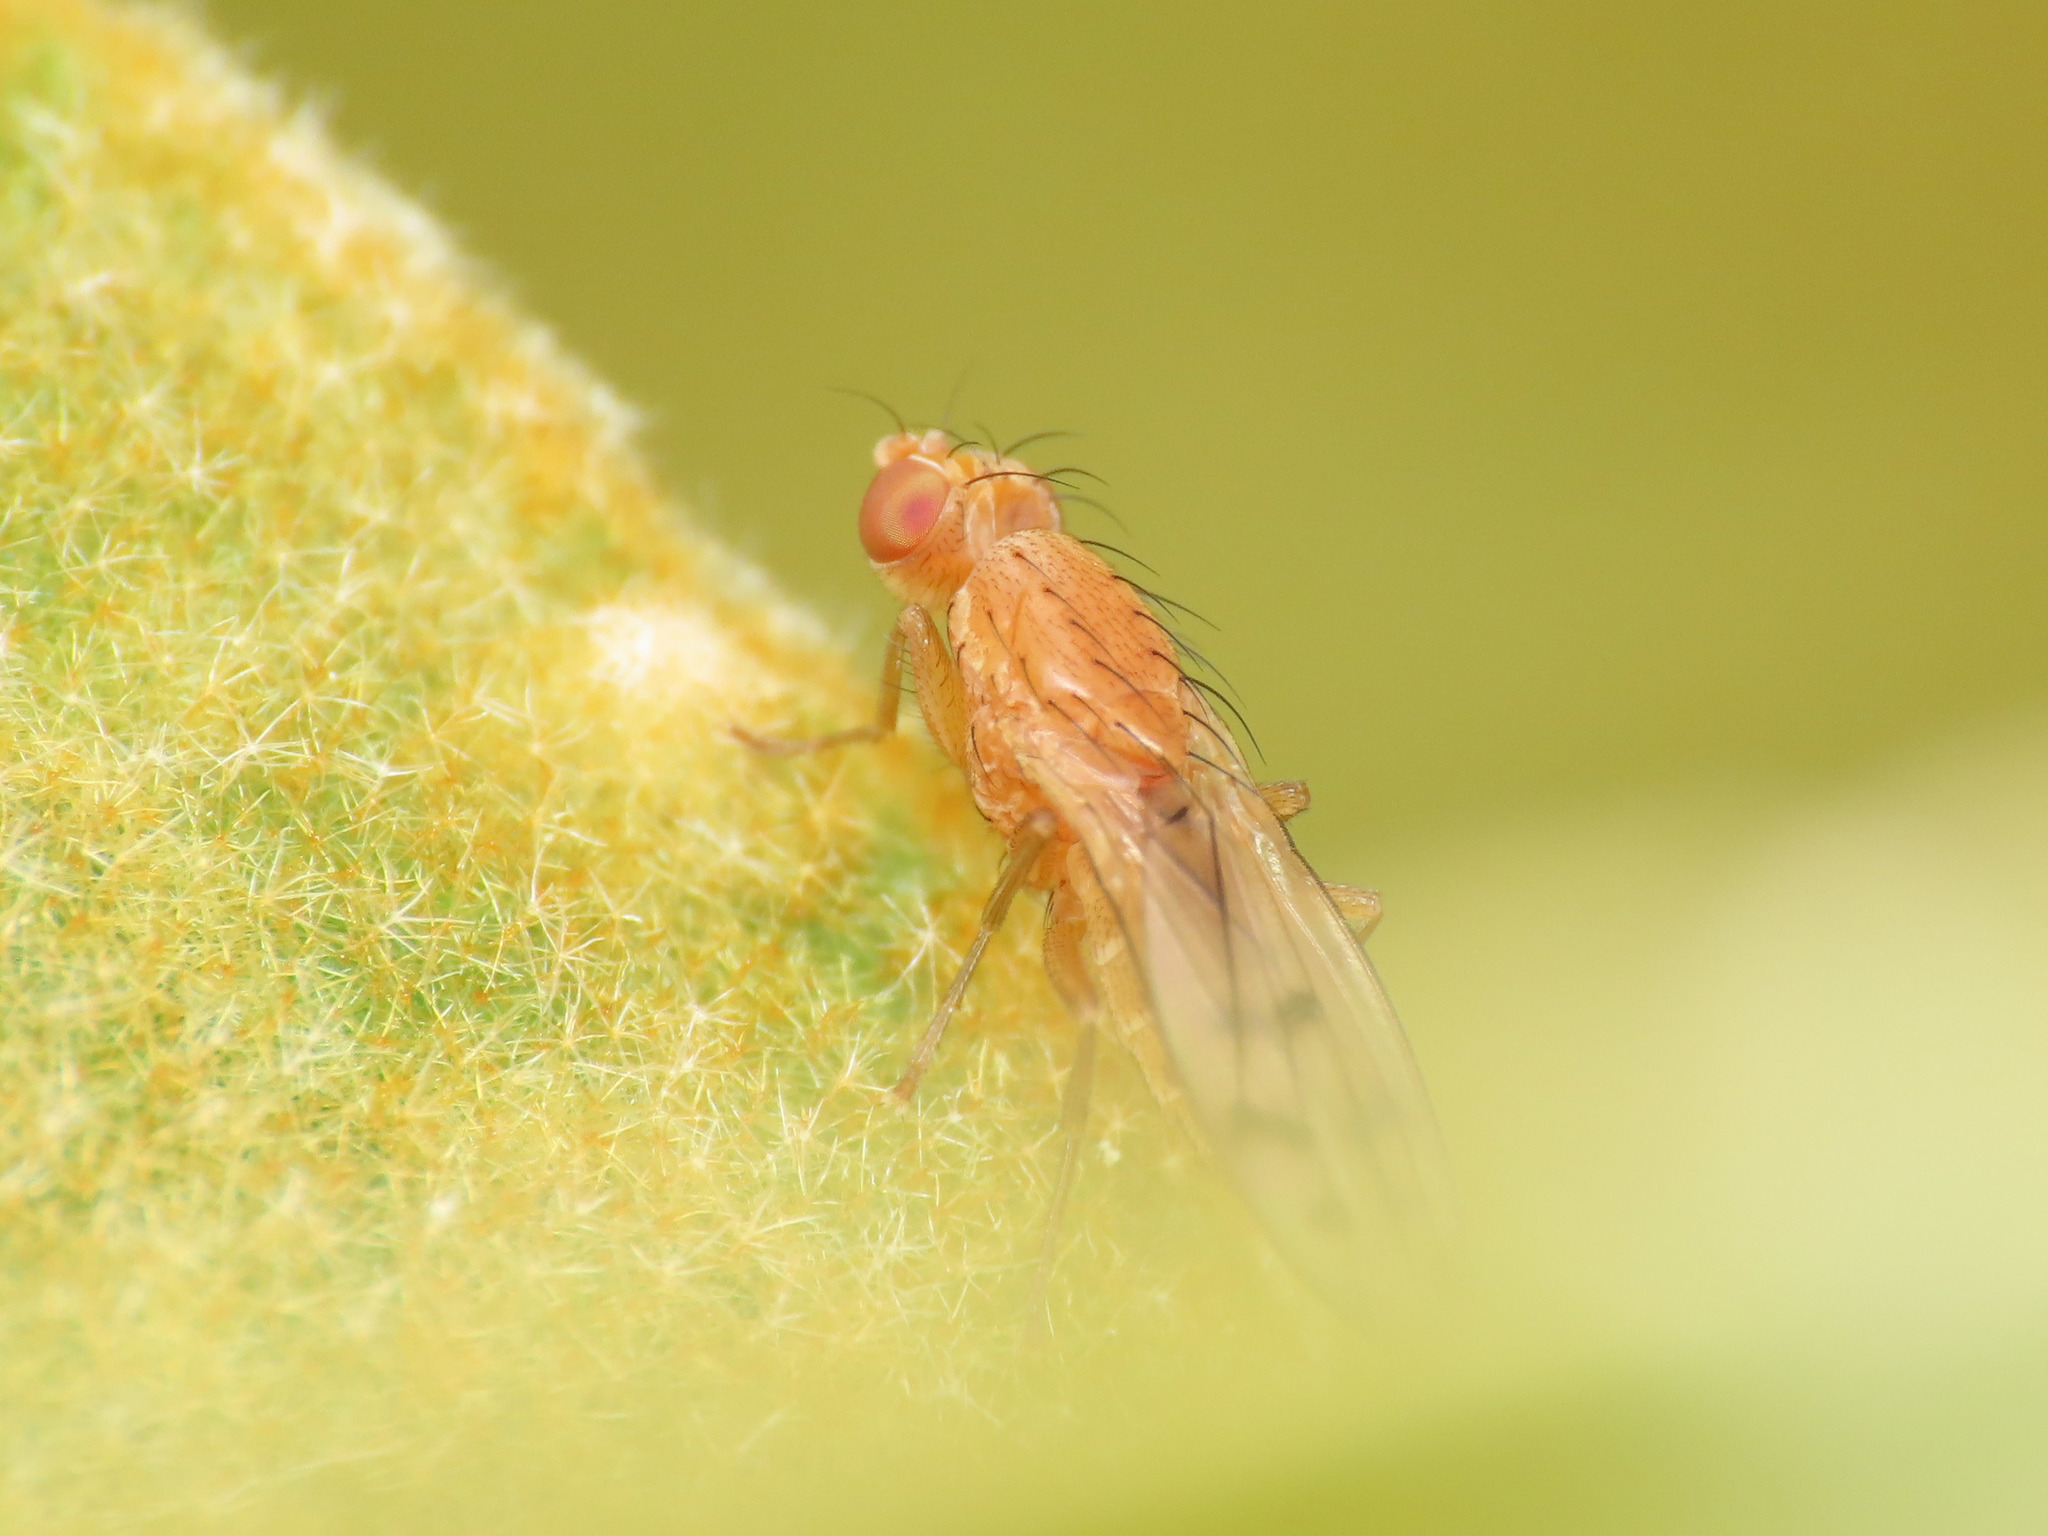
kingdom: Animalia
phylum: Arthropoda
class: Insecta
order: Diptera
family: Opomyzidae
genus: Opomyza
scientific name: Opomyza florum
